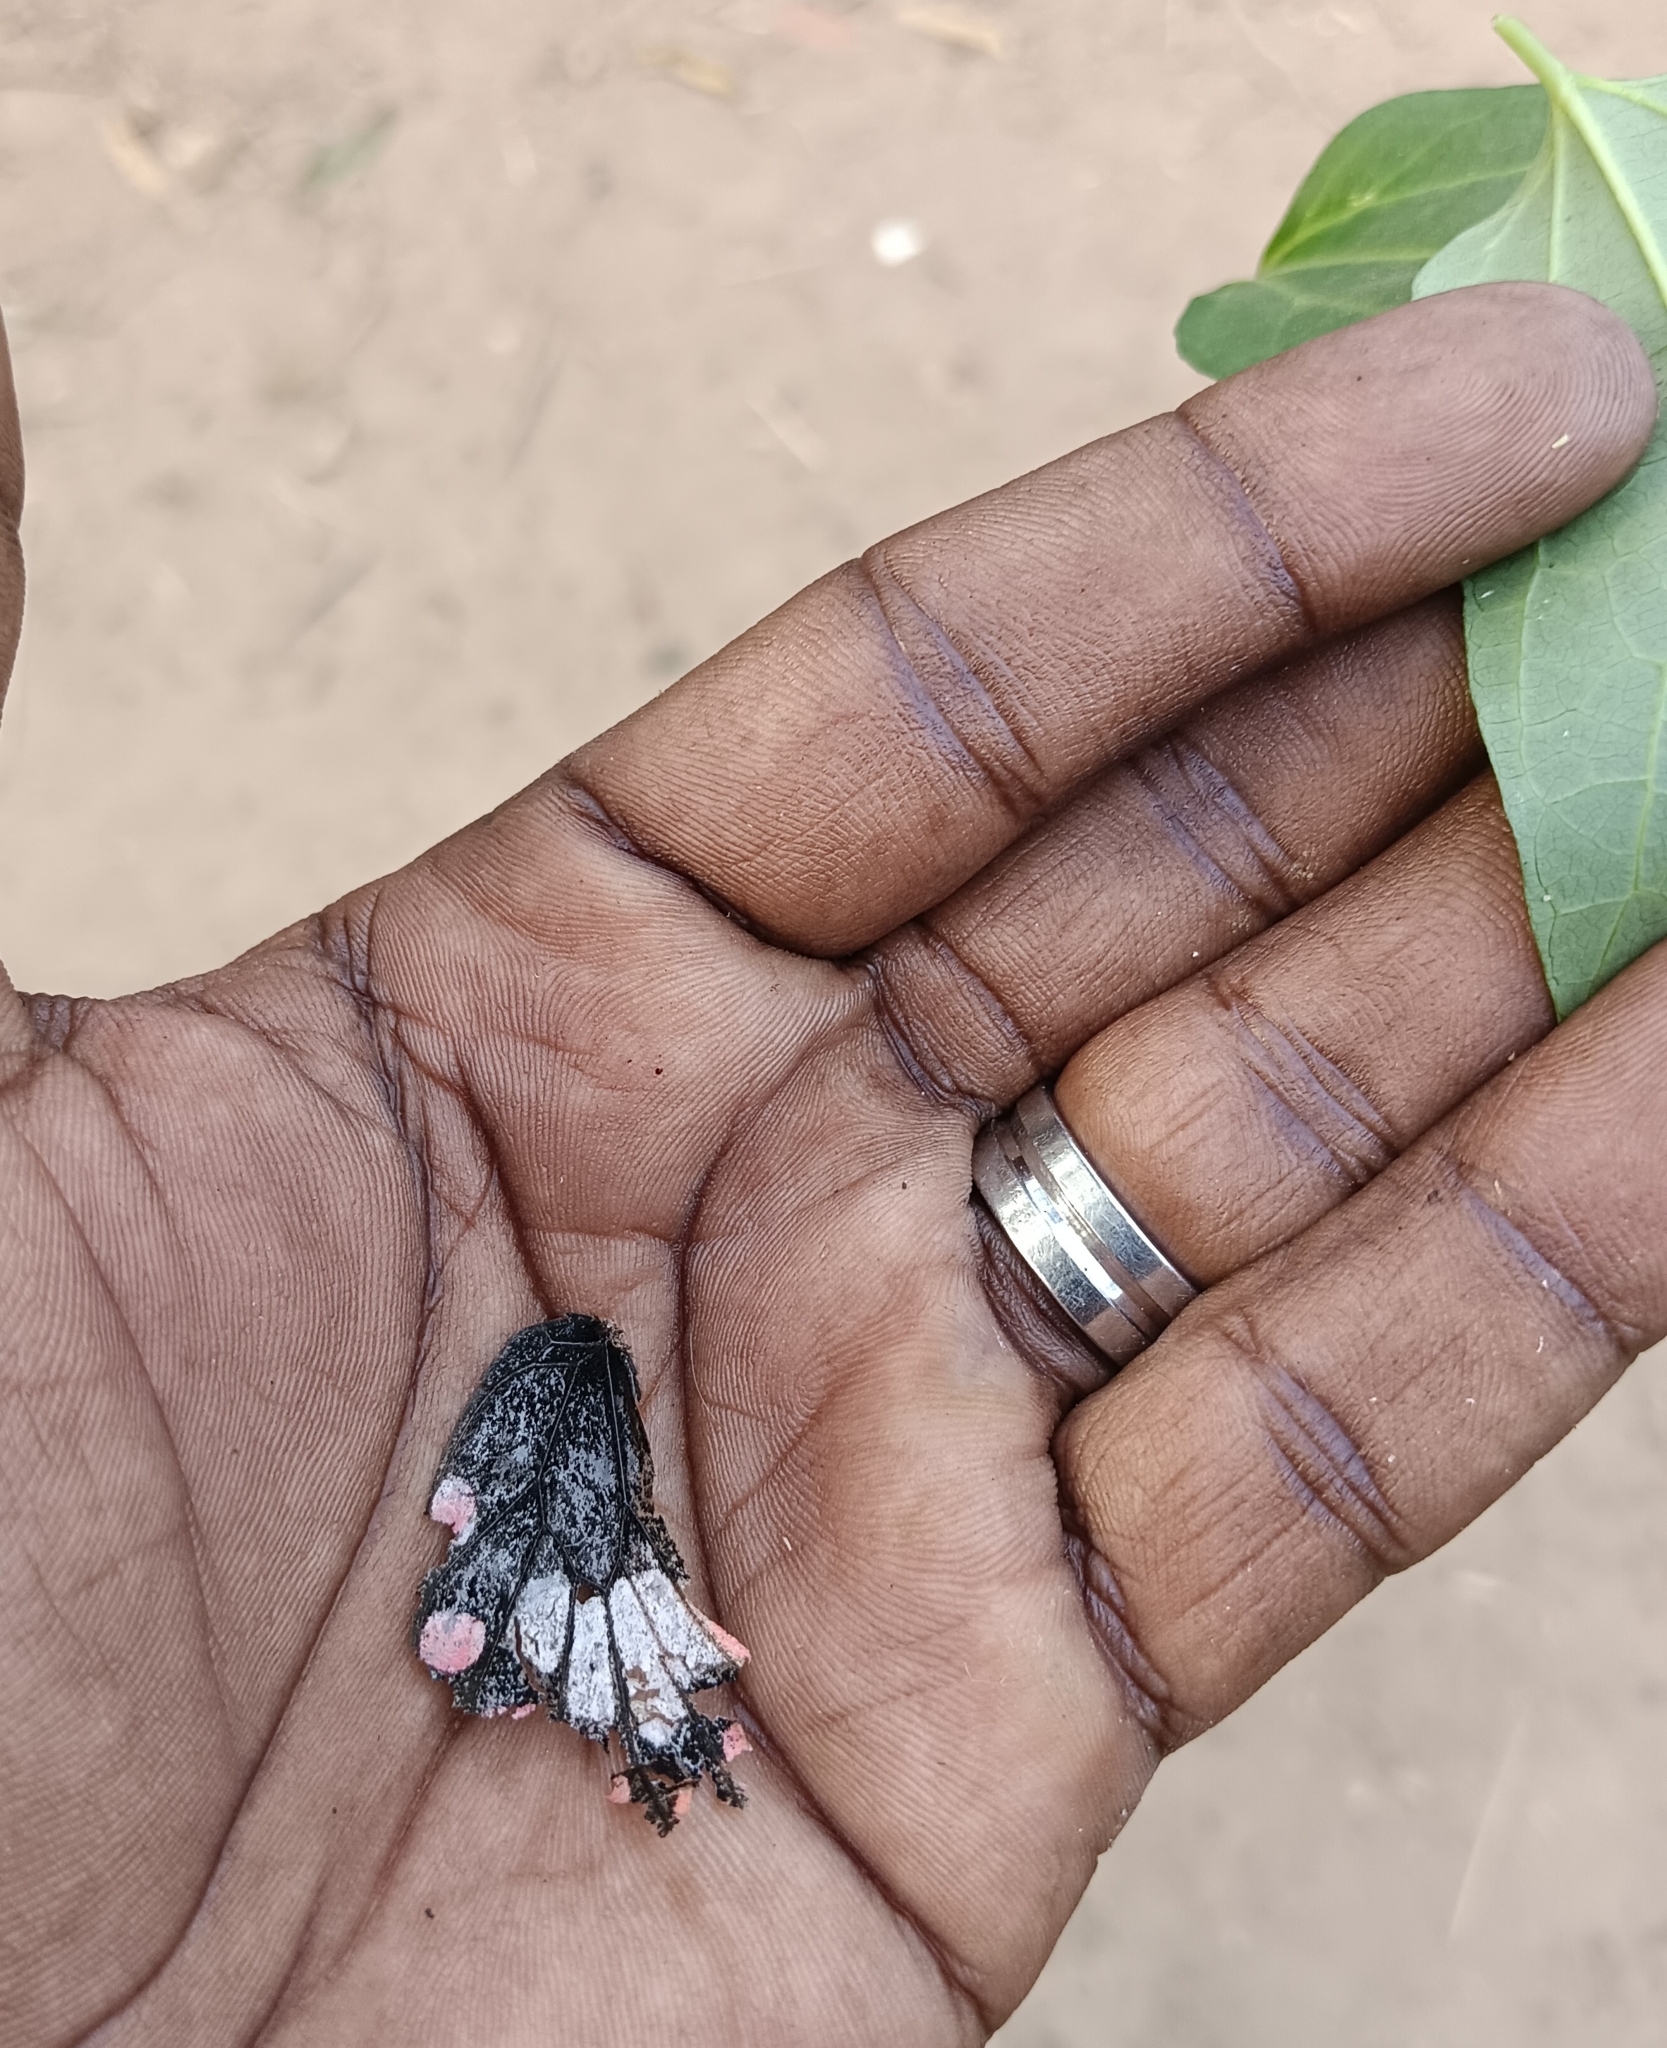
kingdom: Animalia
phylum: Arthropoda
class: Insecta
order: Lepidoptera
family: Papilionidae
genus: Pachliopta
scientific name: Pachliopta aristolochiae
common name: Common rose
